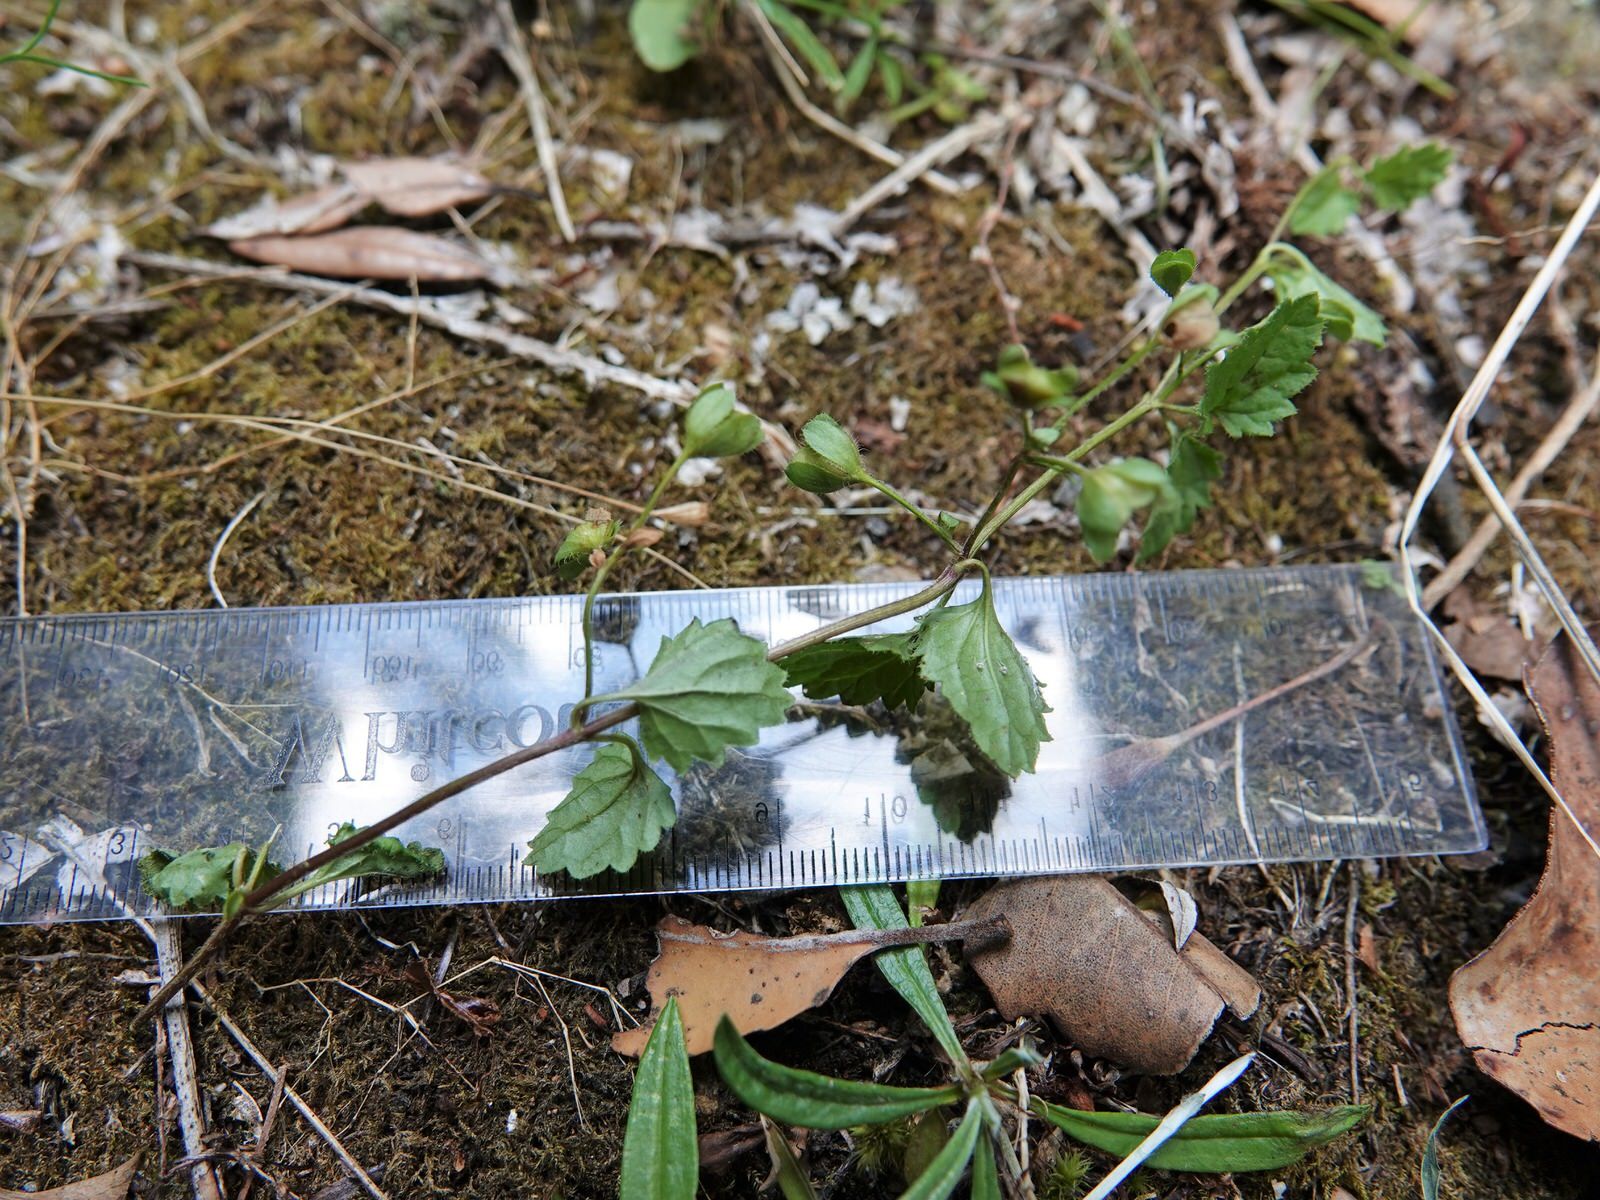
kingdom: Plantae
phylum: Tracheophyta
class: Magnoliopsida
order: Lamiales
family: Plantaginaceae
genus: Veronica
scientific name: Veronica calycina
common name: Cup speedwell
